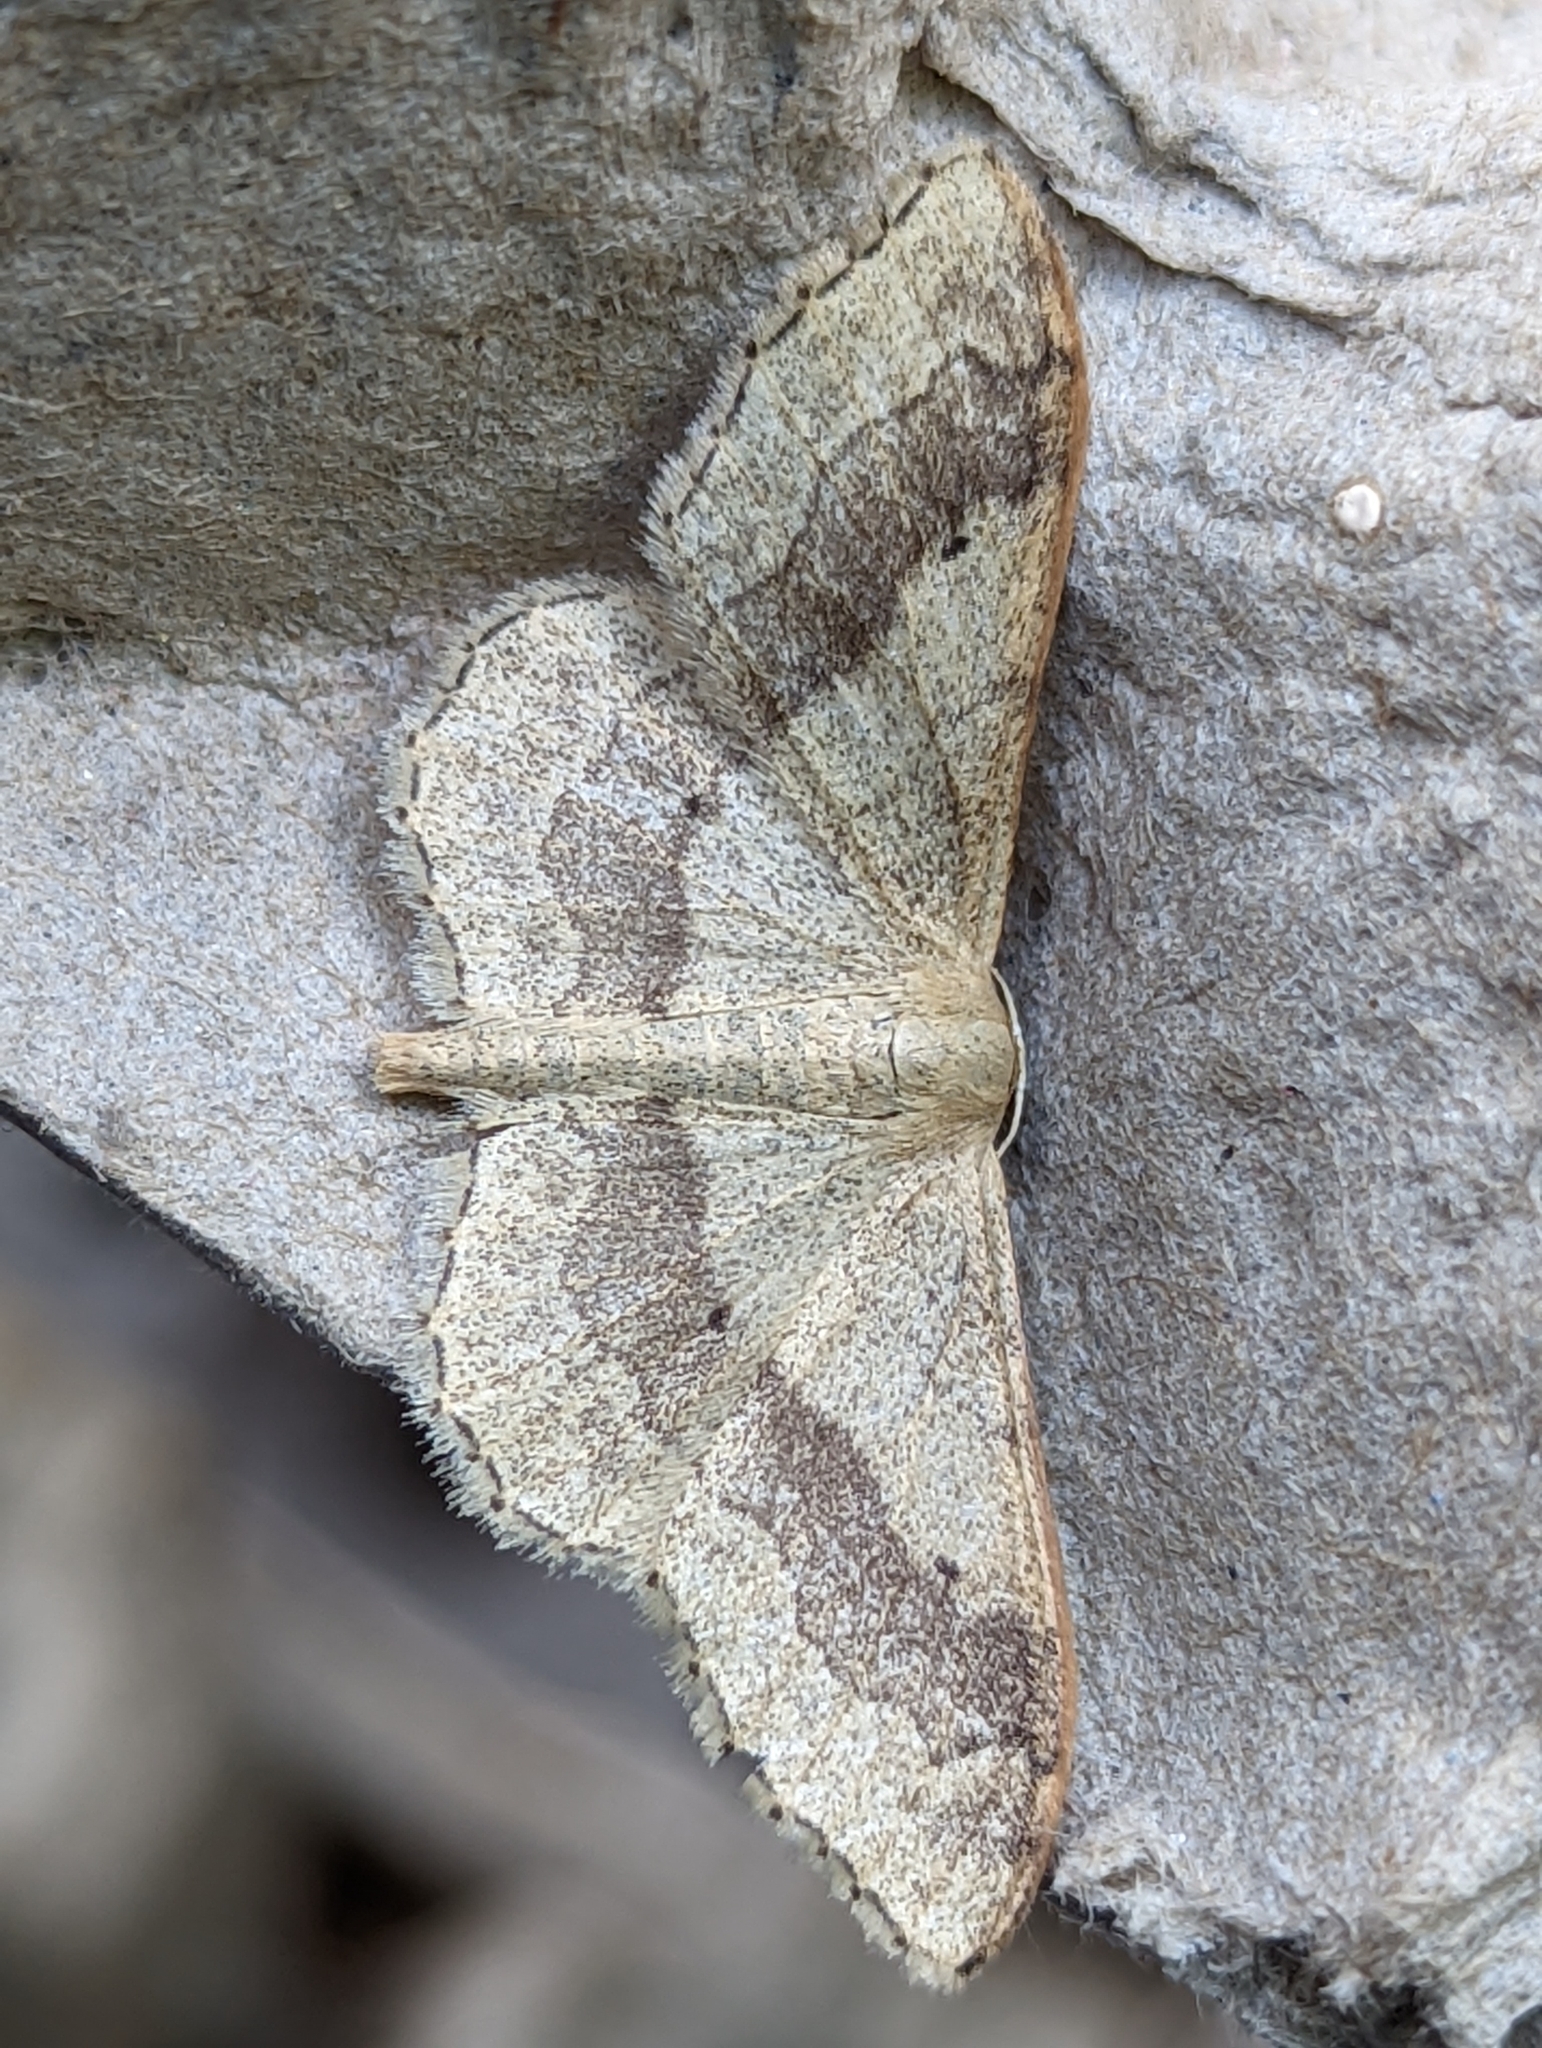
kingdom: Animalia
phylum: Arthropoda
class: Insecta
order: Lepidoptera
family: Geometridae
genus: Idaea
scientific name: Idaea aversata
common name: Riband wave
